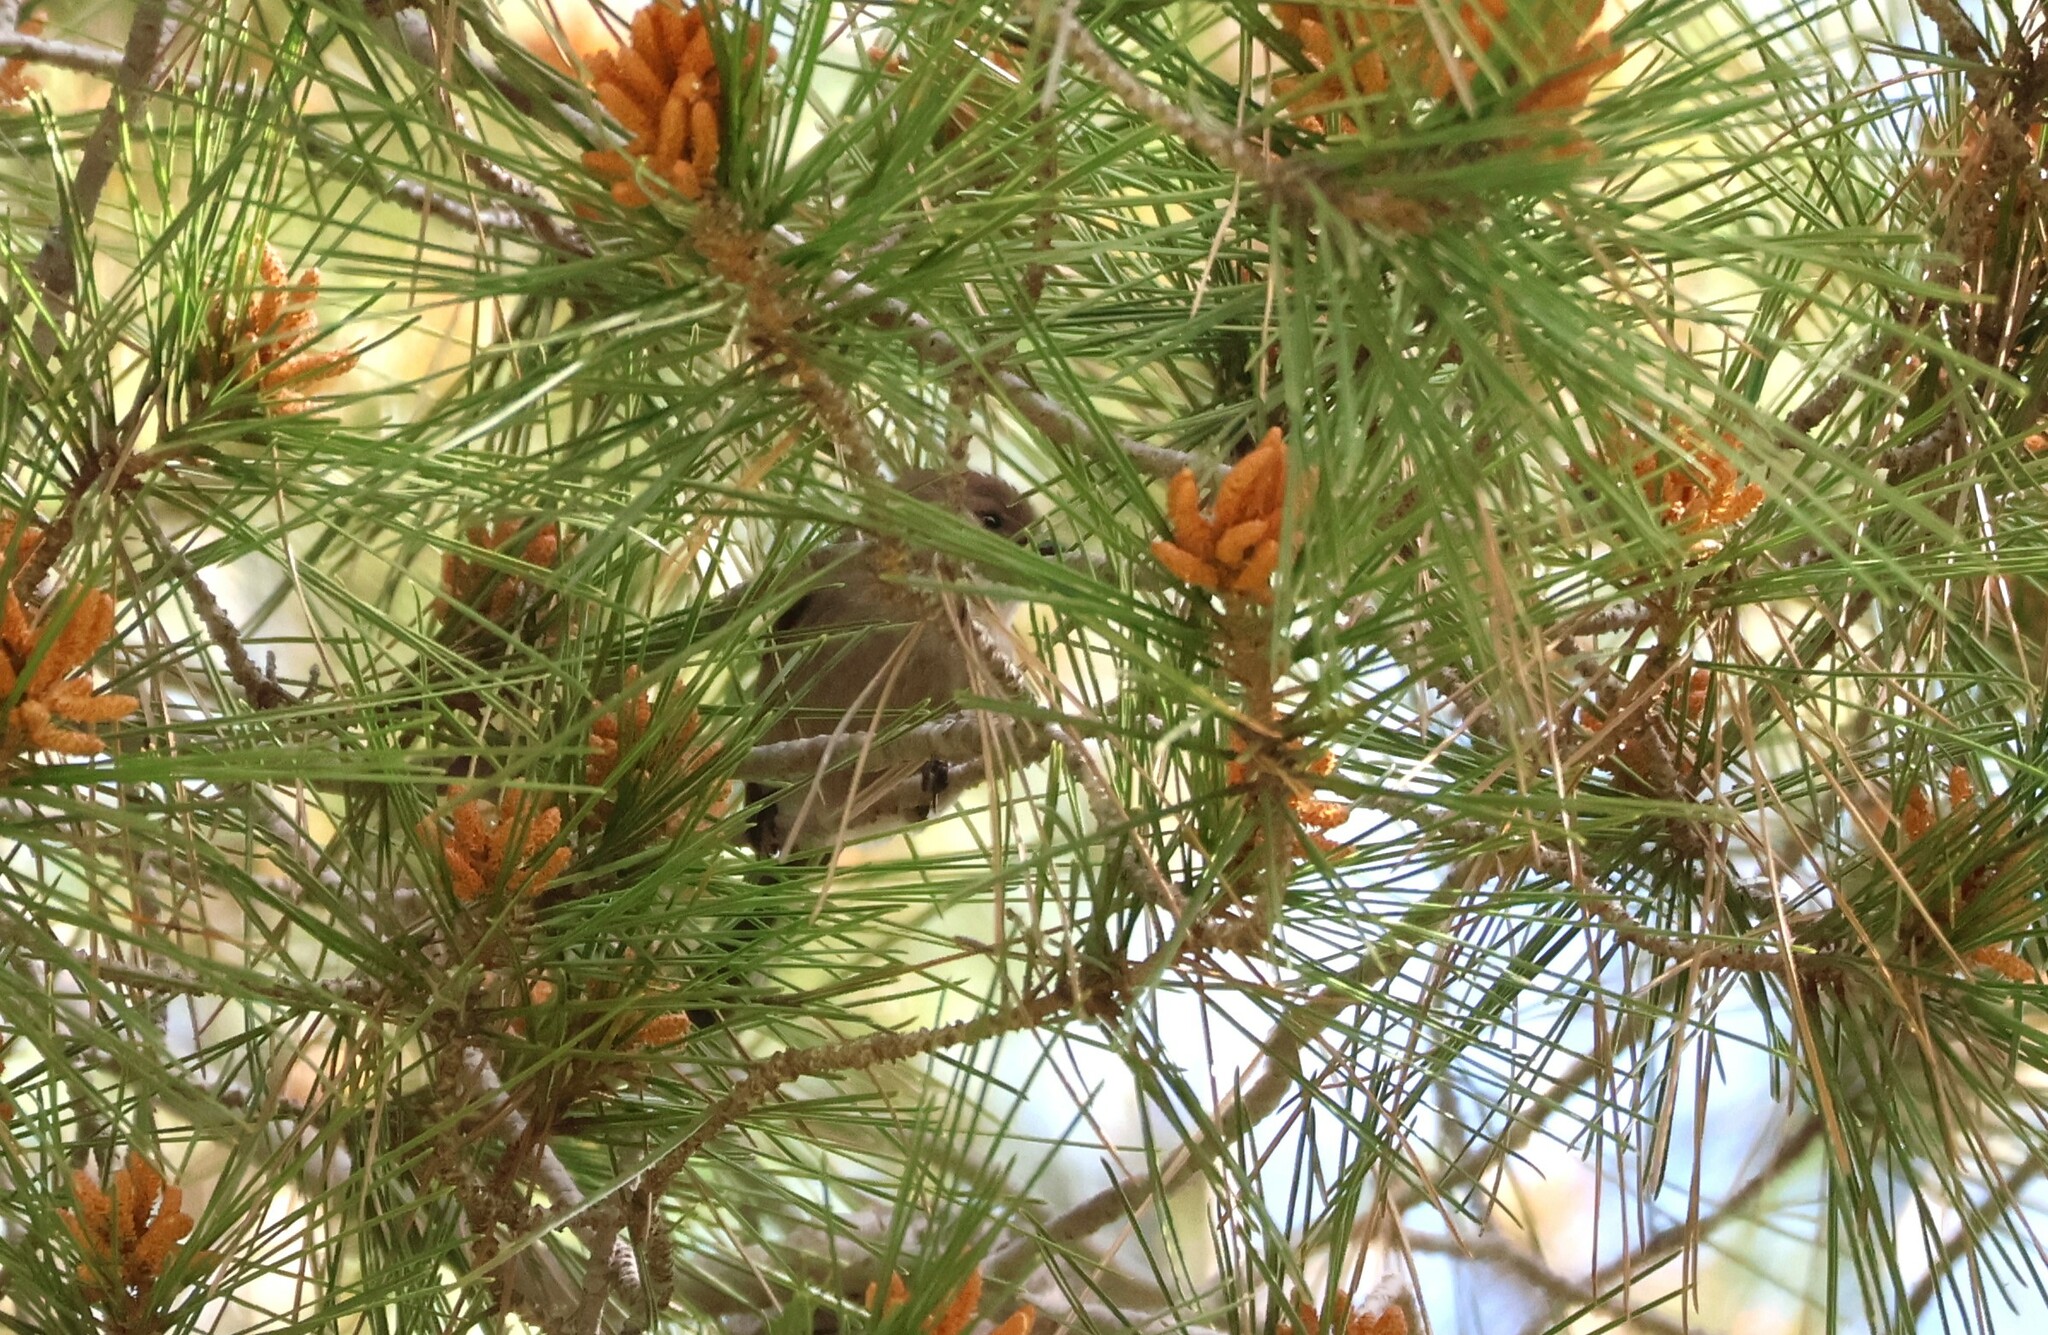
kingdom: Animalia
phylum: Chordata
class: Aves
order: Passeriformes
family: Aegithalidae
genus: Psaltriparus
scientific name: Psaltriparus minimus
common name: American bushtit
